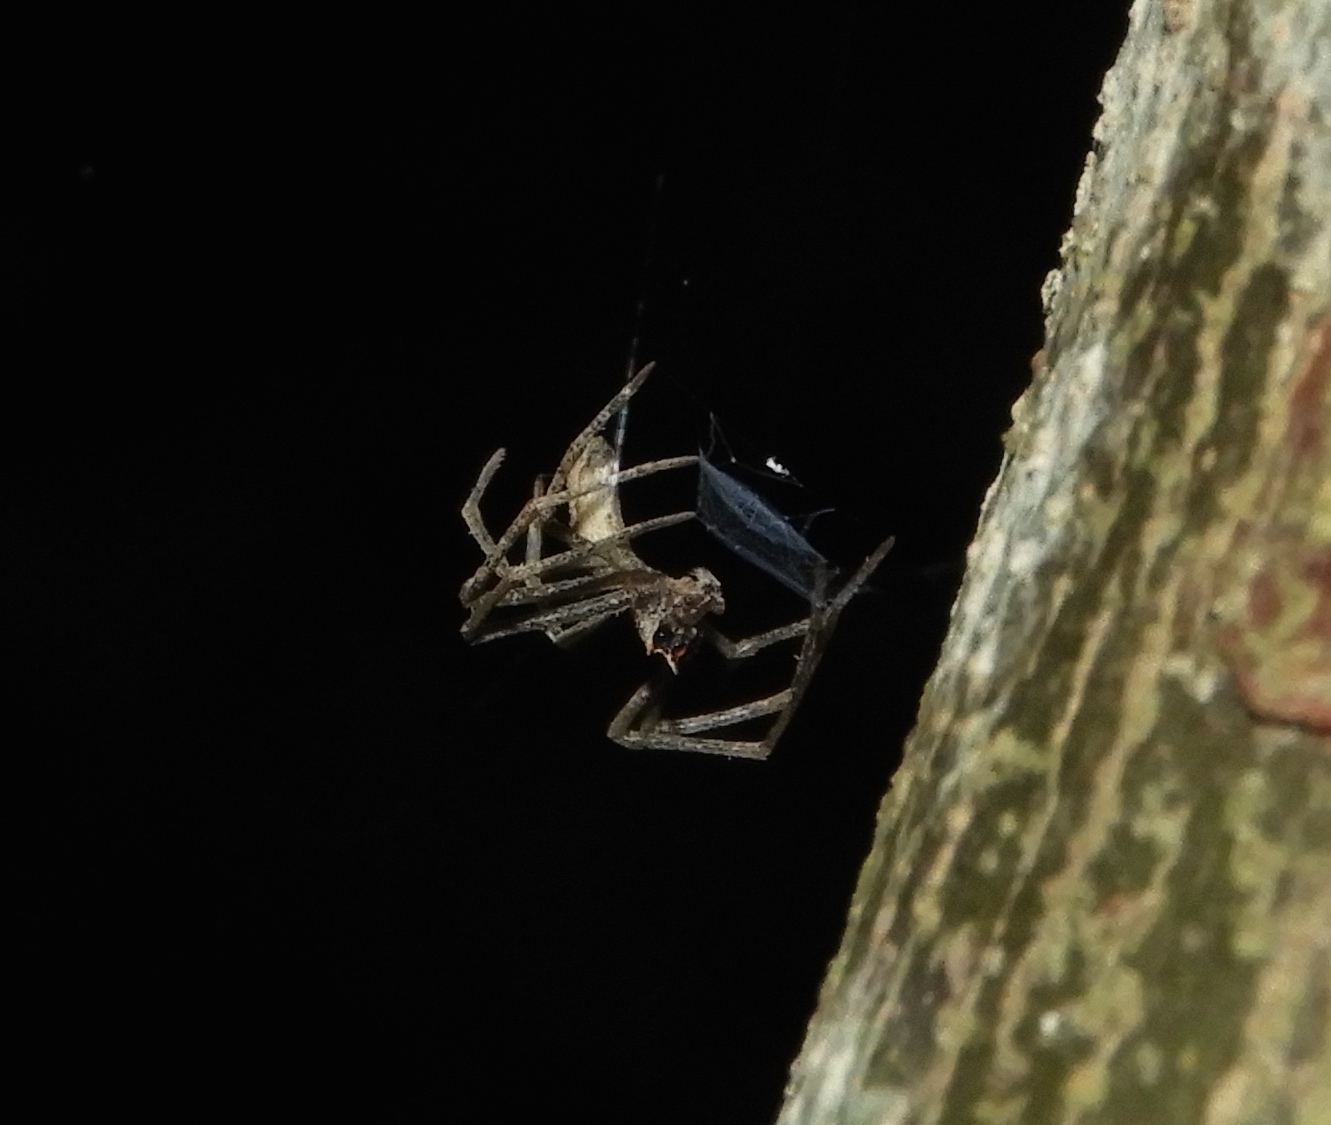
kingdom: Animalia
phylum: Arthropoda
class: Arachnida
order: Araneae
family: Deinopidae
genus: Deinopis
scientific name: Deinopis aurita
